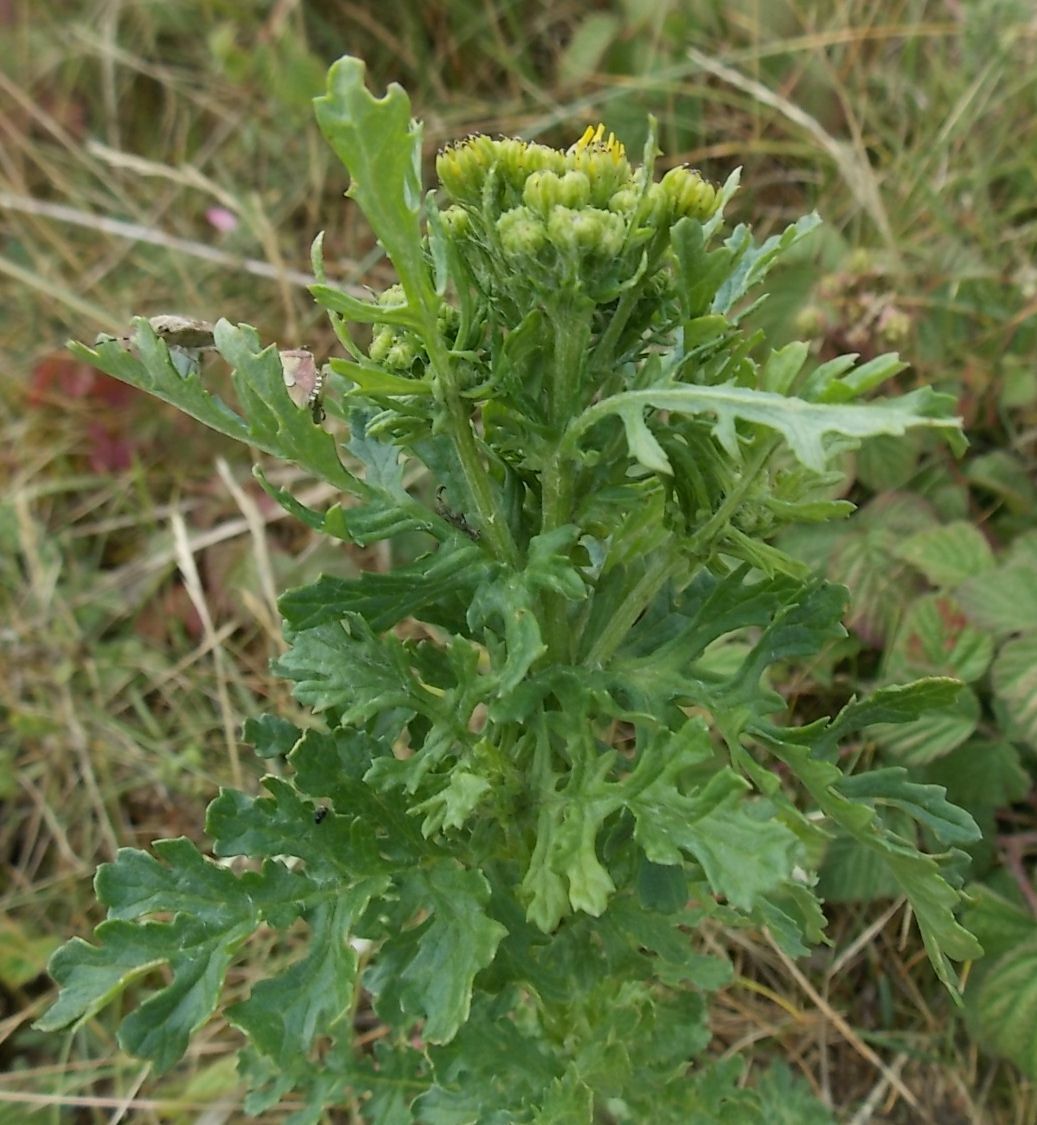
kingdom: Plantae
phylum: Tracheophyta
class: Magnoliopsida
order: Asterales
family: Asteraceae
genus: Jacobaea
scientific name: Jacobaea vulgaris
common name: Stinking willie
